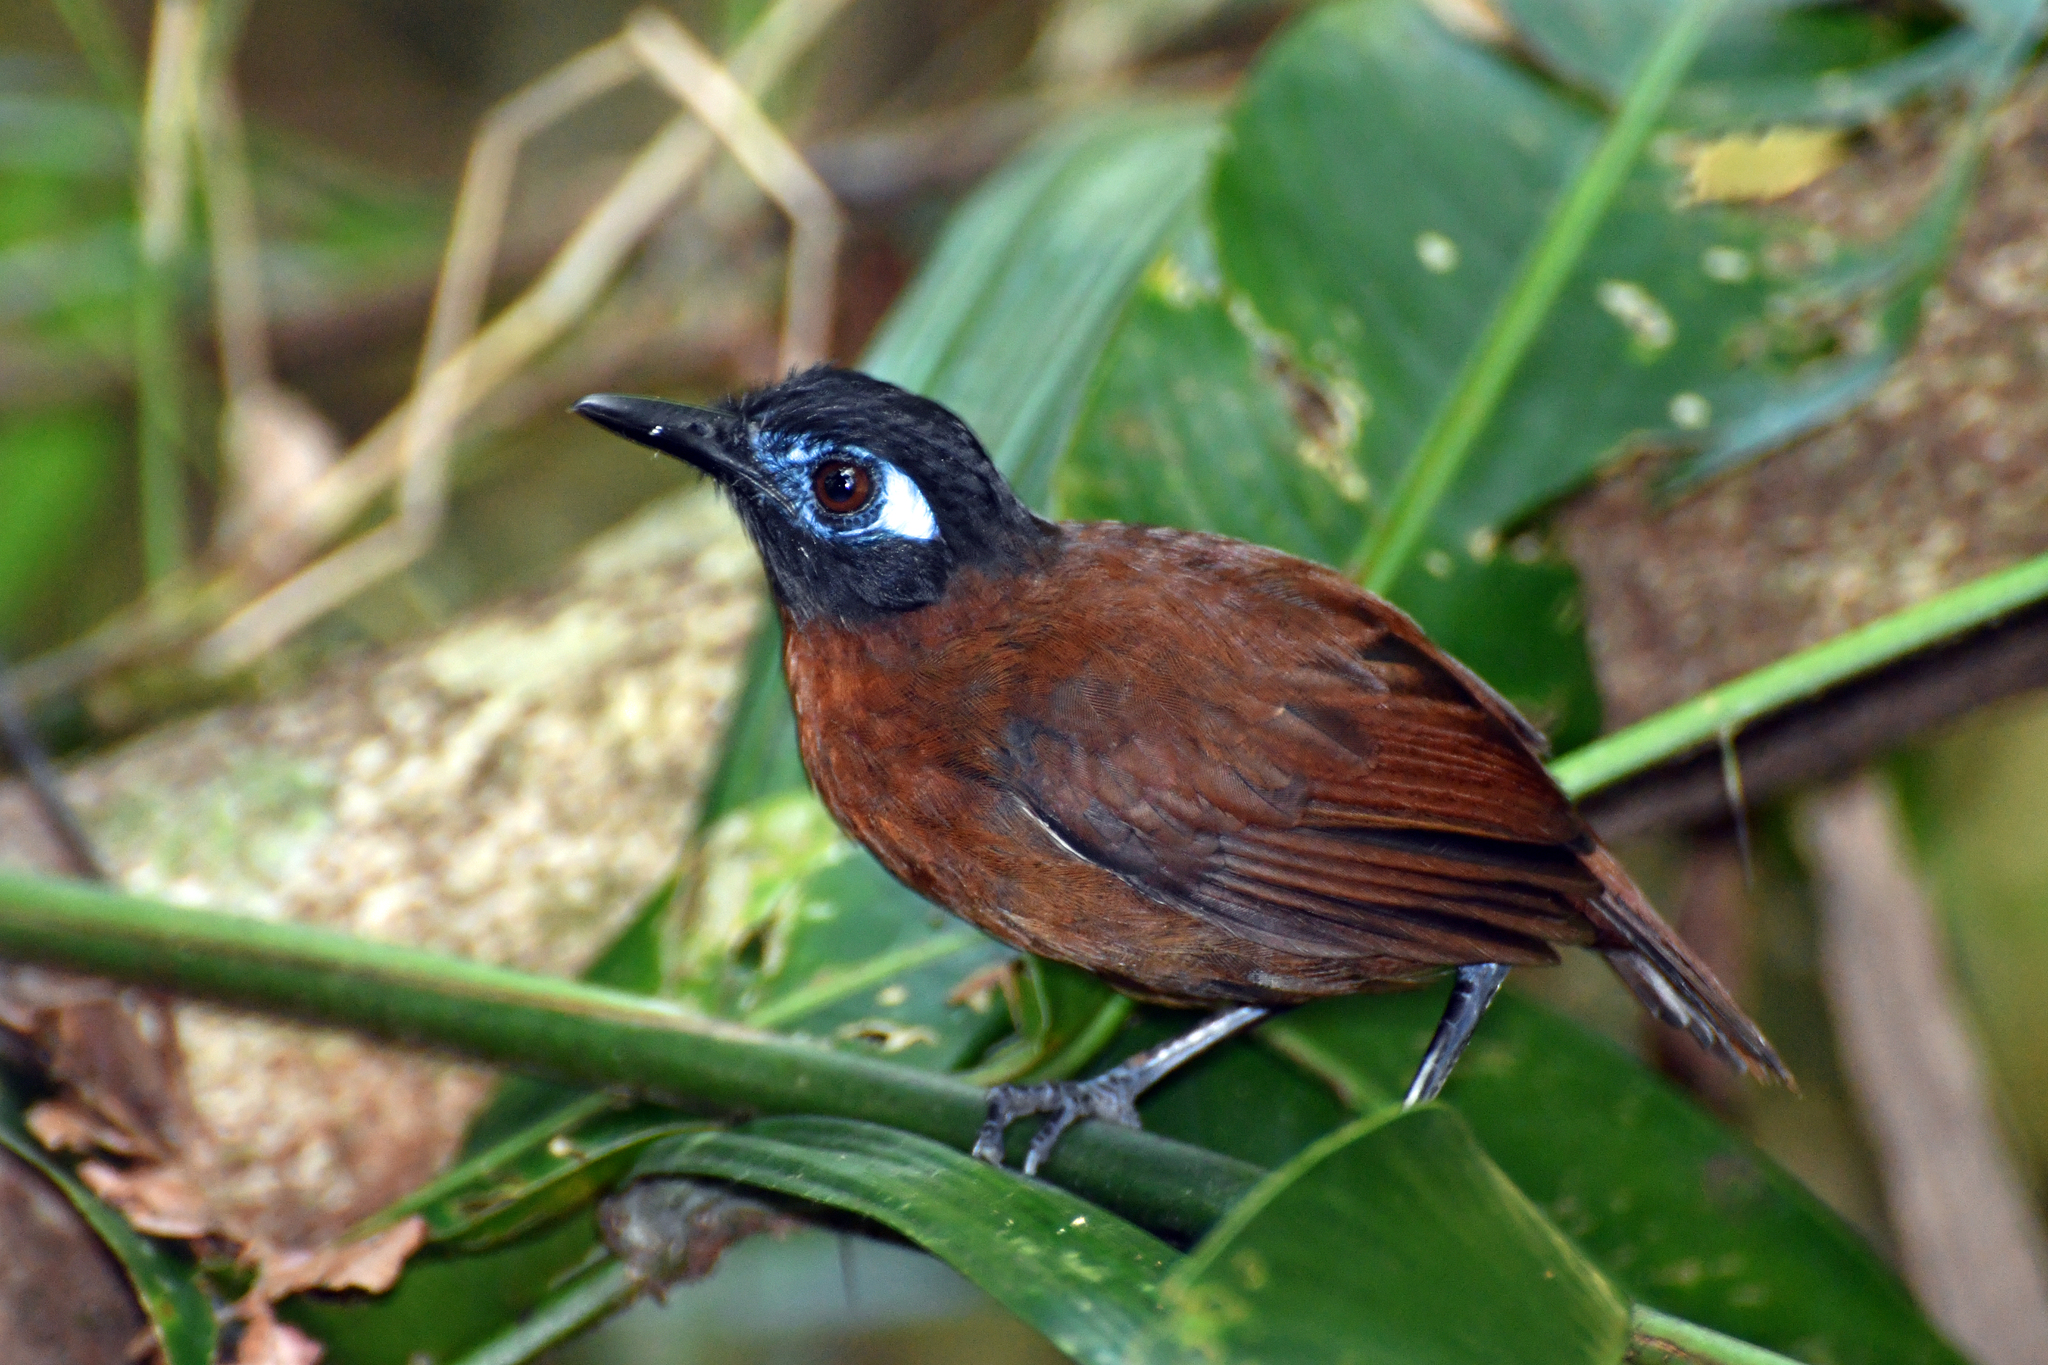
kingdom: Animalia
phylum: Chordata
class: Aves
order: Passeriformes
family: Thamnophilidae
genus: Myrmeciza
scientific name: Myrmeciza exsul
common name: Chestnut-backed antbird
